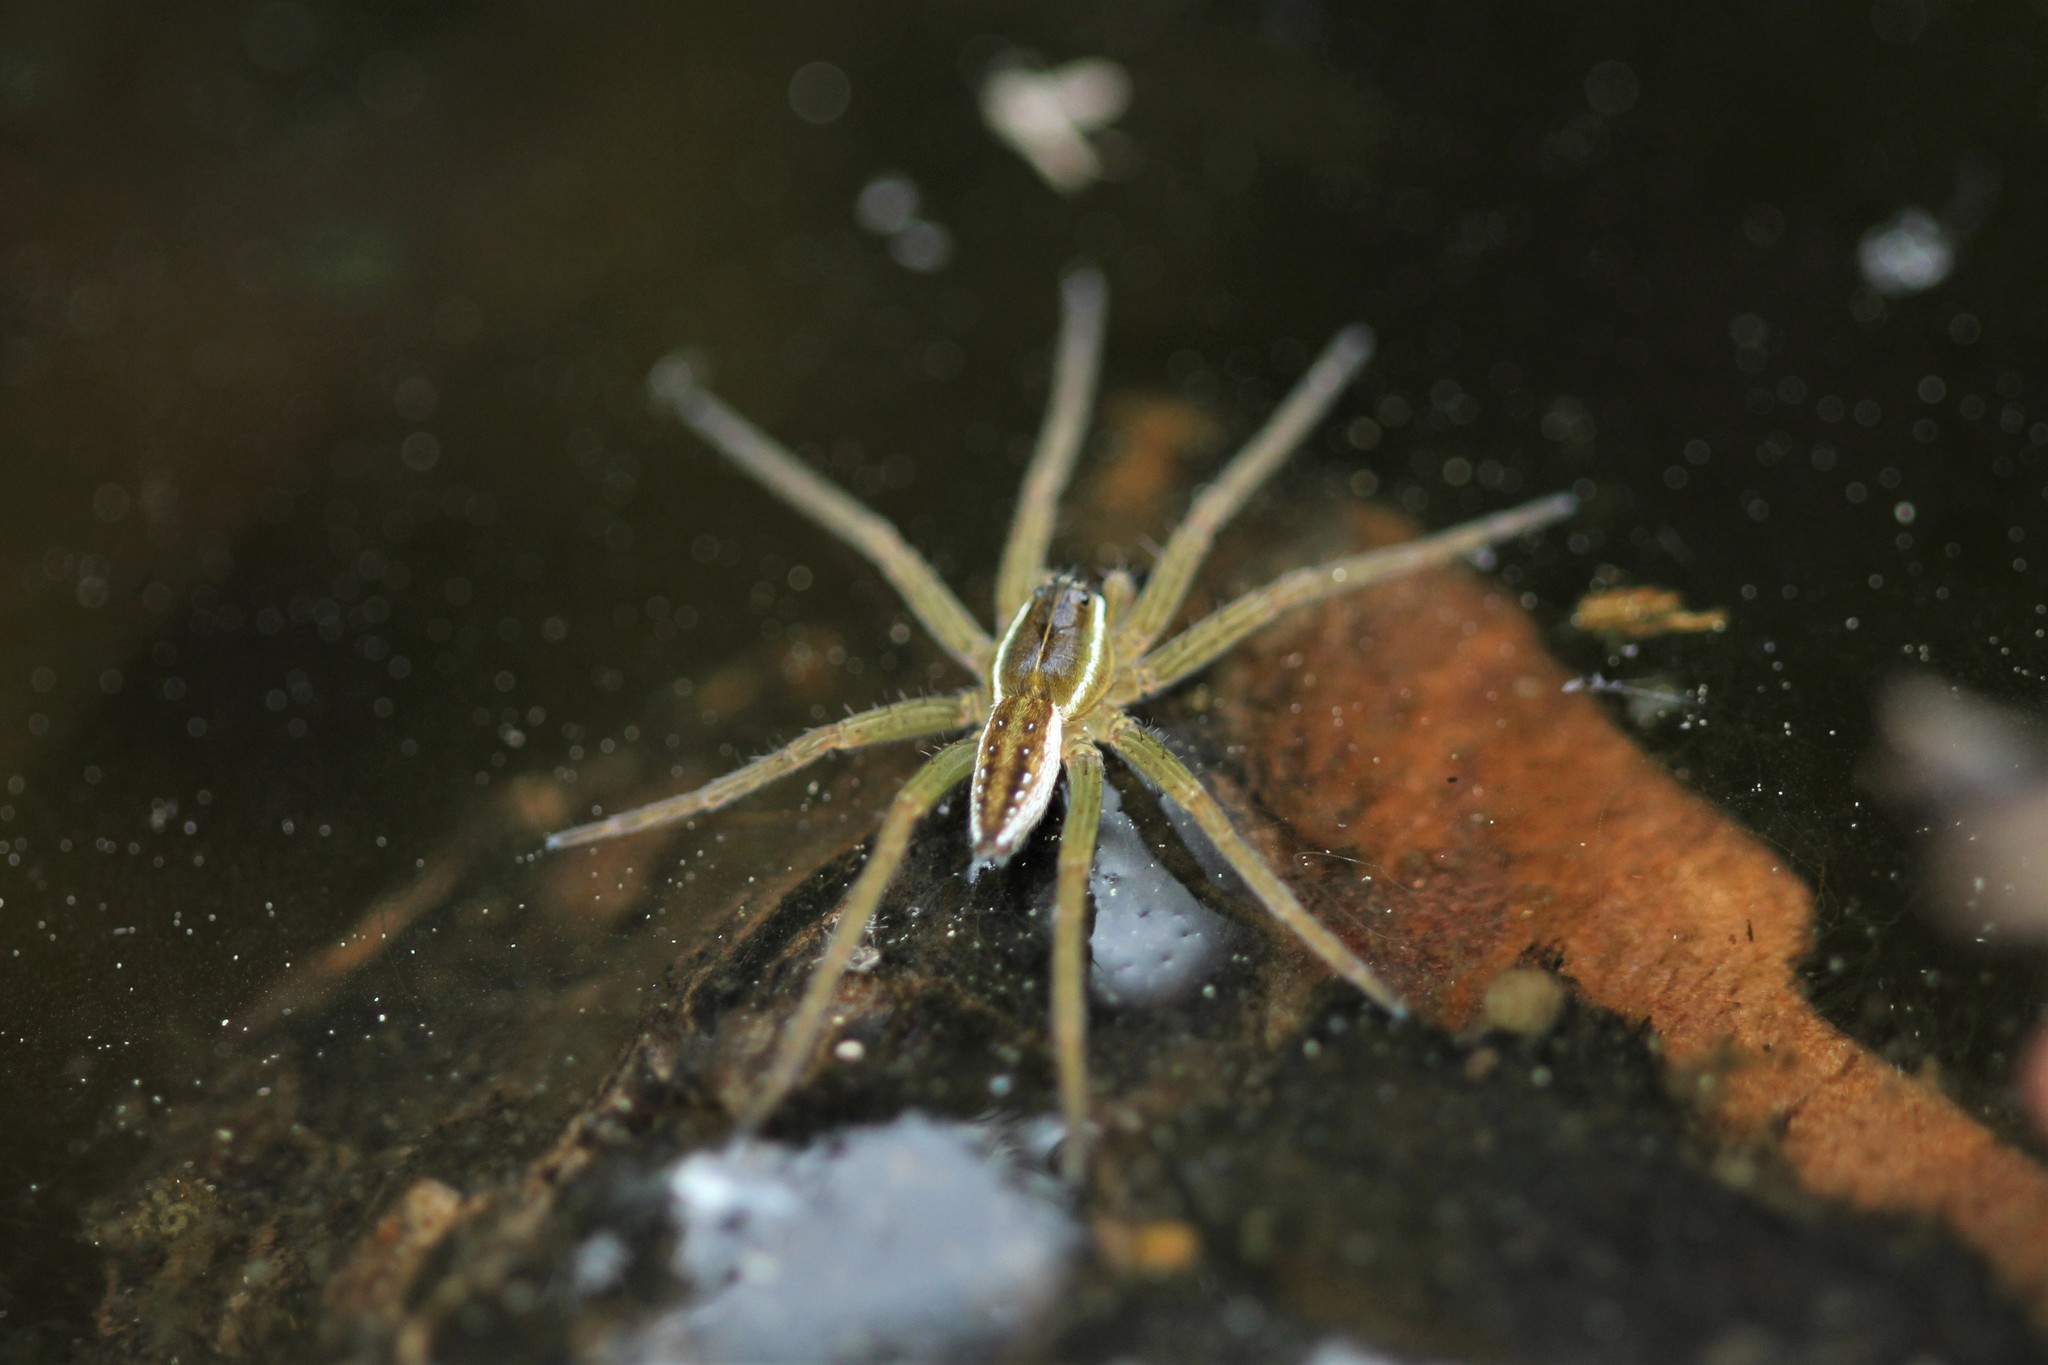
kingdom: Animalia
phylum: Arthropoda
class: Arachnida
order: Araneae
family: Pisauridae
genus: Dolomedes
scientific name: Dolomedes triton
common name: Six-spotted fishing spider
